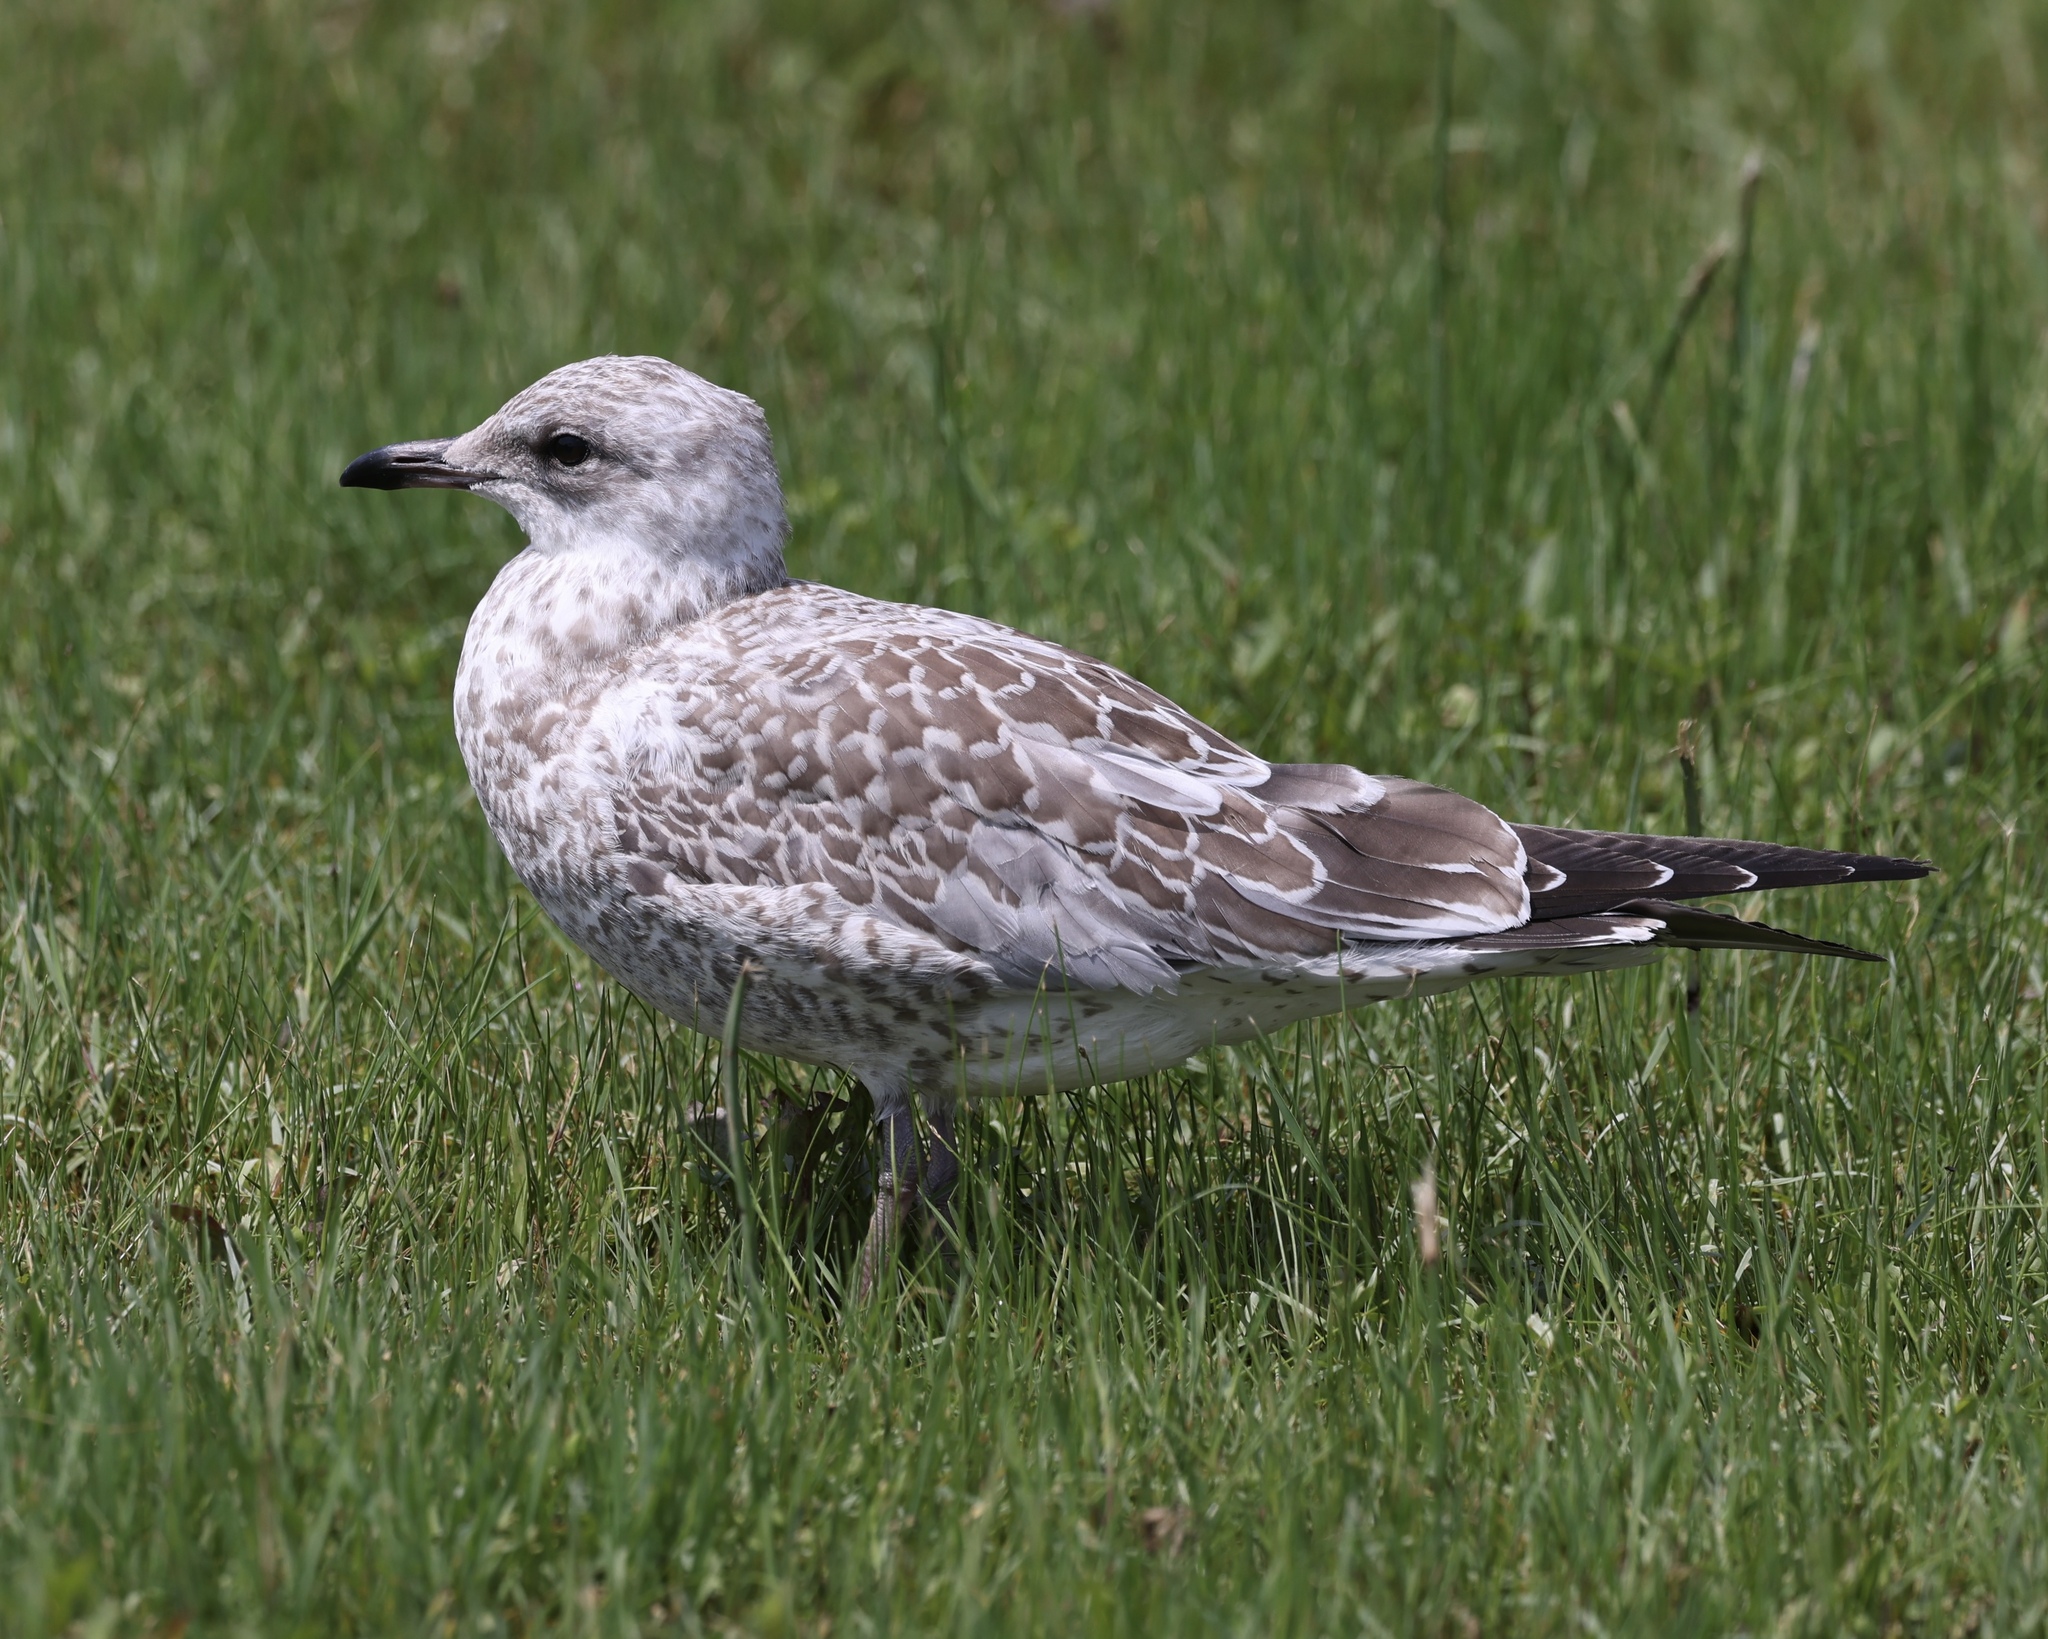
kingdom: Animalia
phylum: Chordata
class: Aves
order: Charadriiformes
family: Laridae
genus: Larus
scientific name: Larus delawarensis
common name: Ring-billed gull
